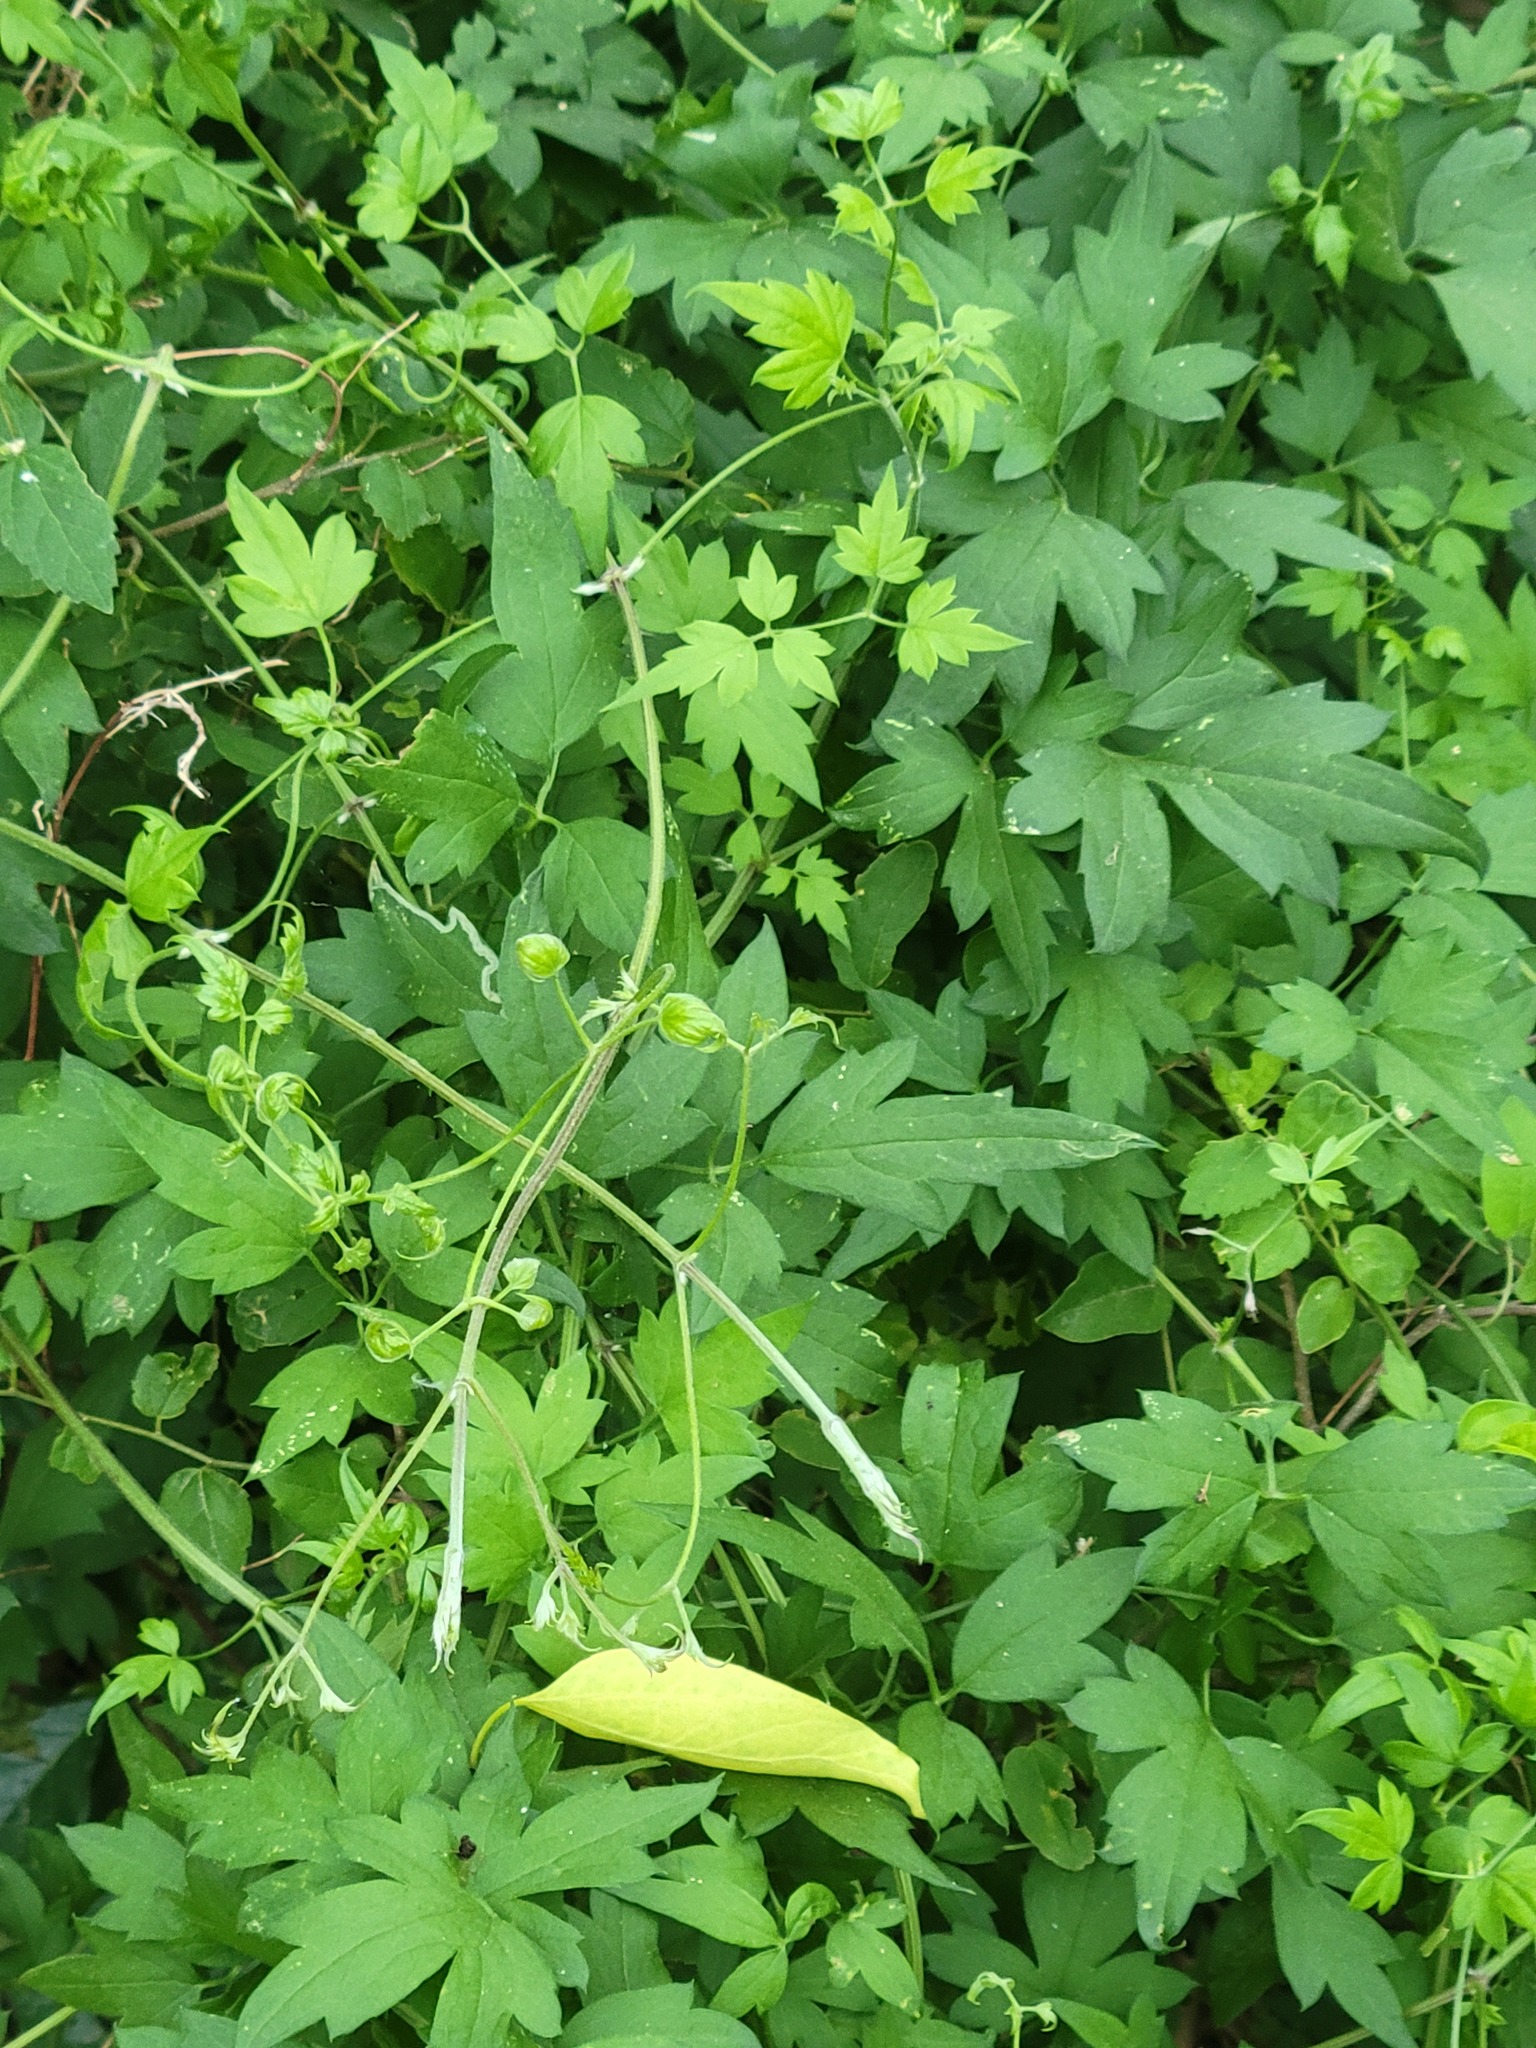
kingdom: Plantae
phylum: Tracheophyta
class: Magnoliopsida
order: Ranunculales
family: Ranunculaceae
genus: Clematis
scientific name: Clematis drummondii
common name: Texas virgin's bower
